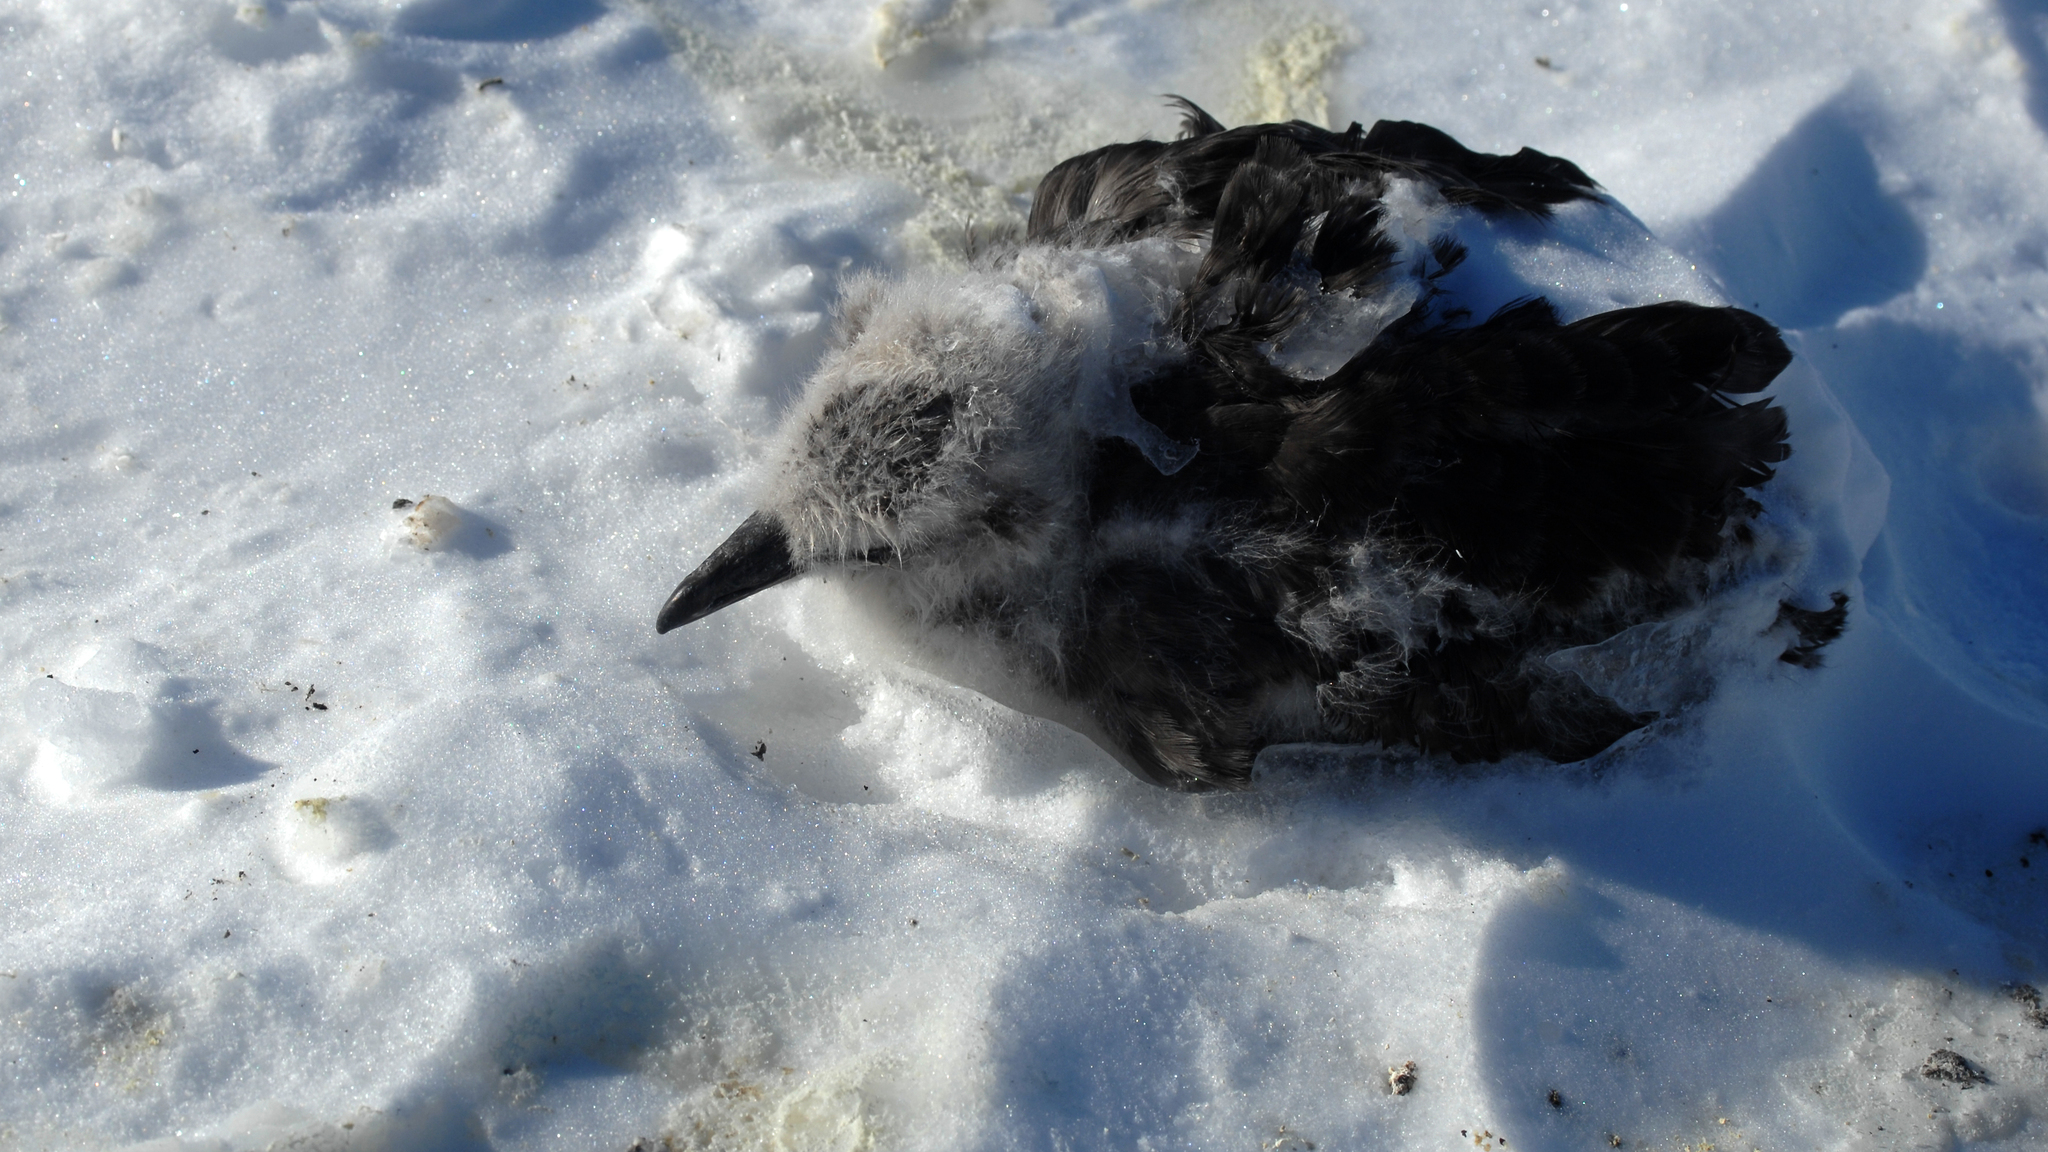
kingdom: Animalia
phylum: Chordata
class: Aves
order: Charadriiformes
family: Stercorariidae
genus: Stercorarius
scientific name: Stercorarius maccormicki
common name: South polar skua
